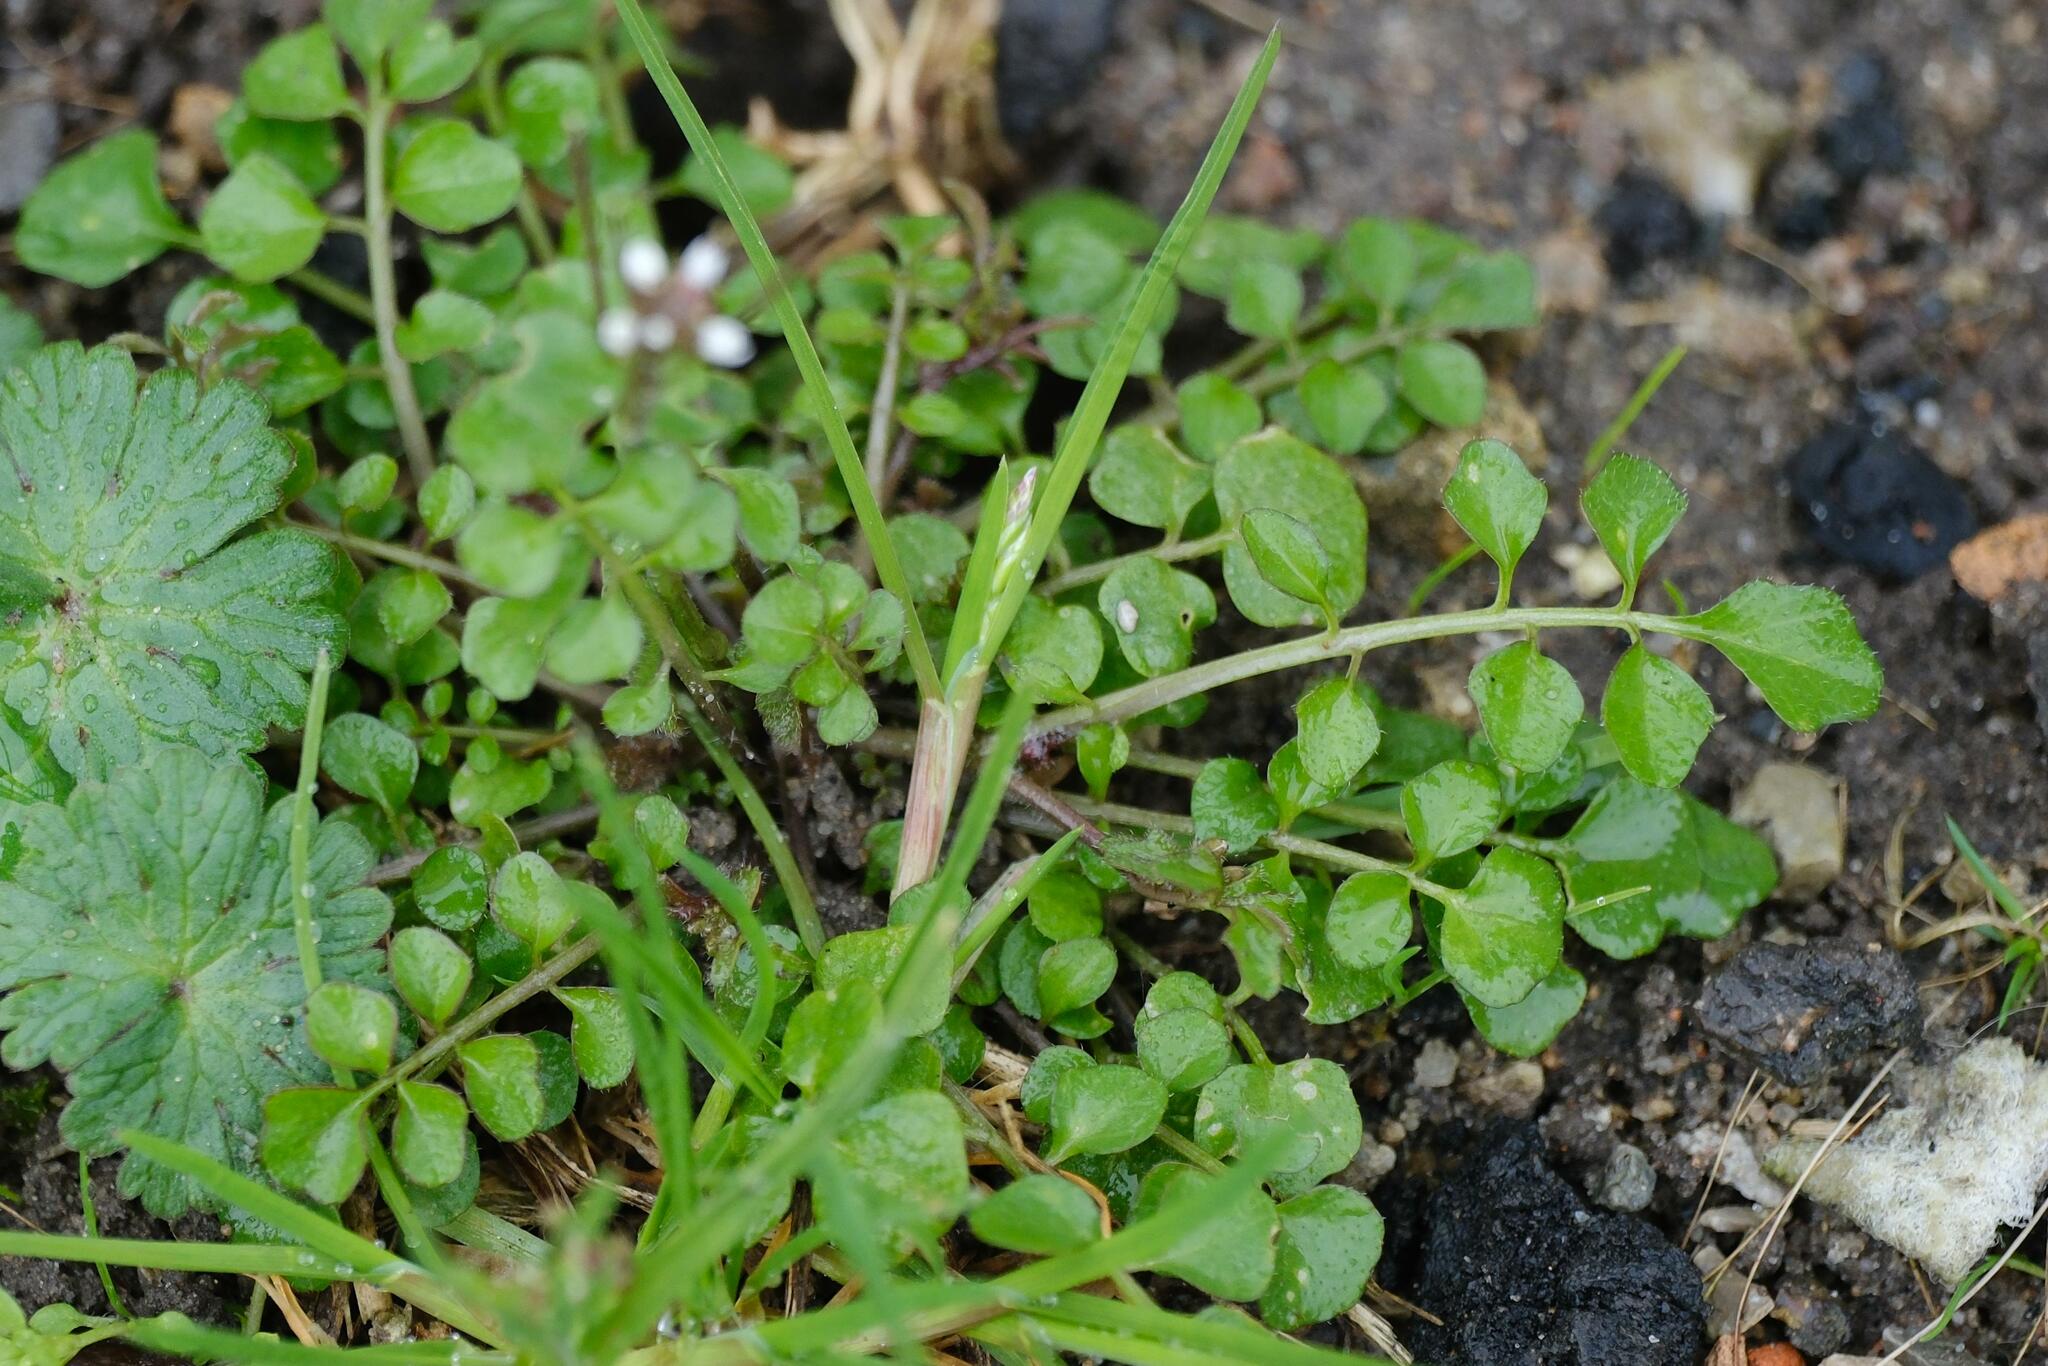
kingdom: Plantae
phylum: Tracheophyta
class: Magnoliopsida
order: Brassicales
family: Brassicaceae
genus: Cardamine
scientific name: Cardamine hirsuta
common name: Hairy bittercress
